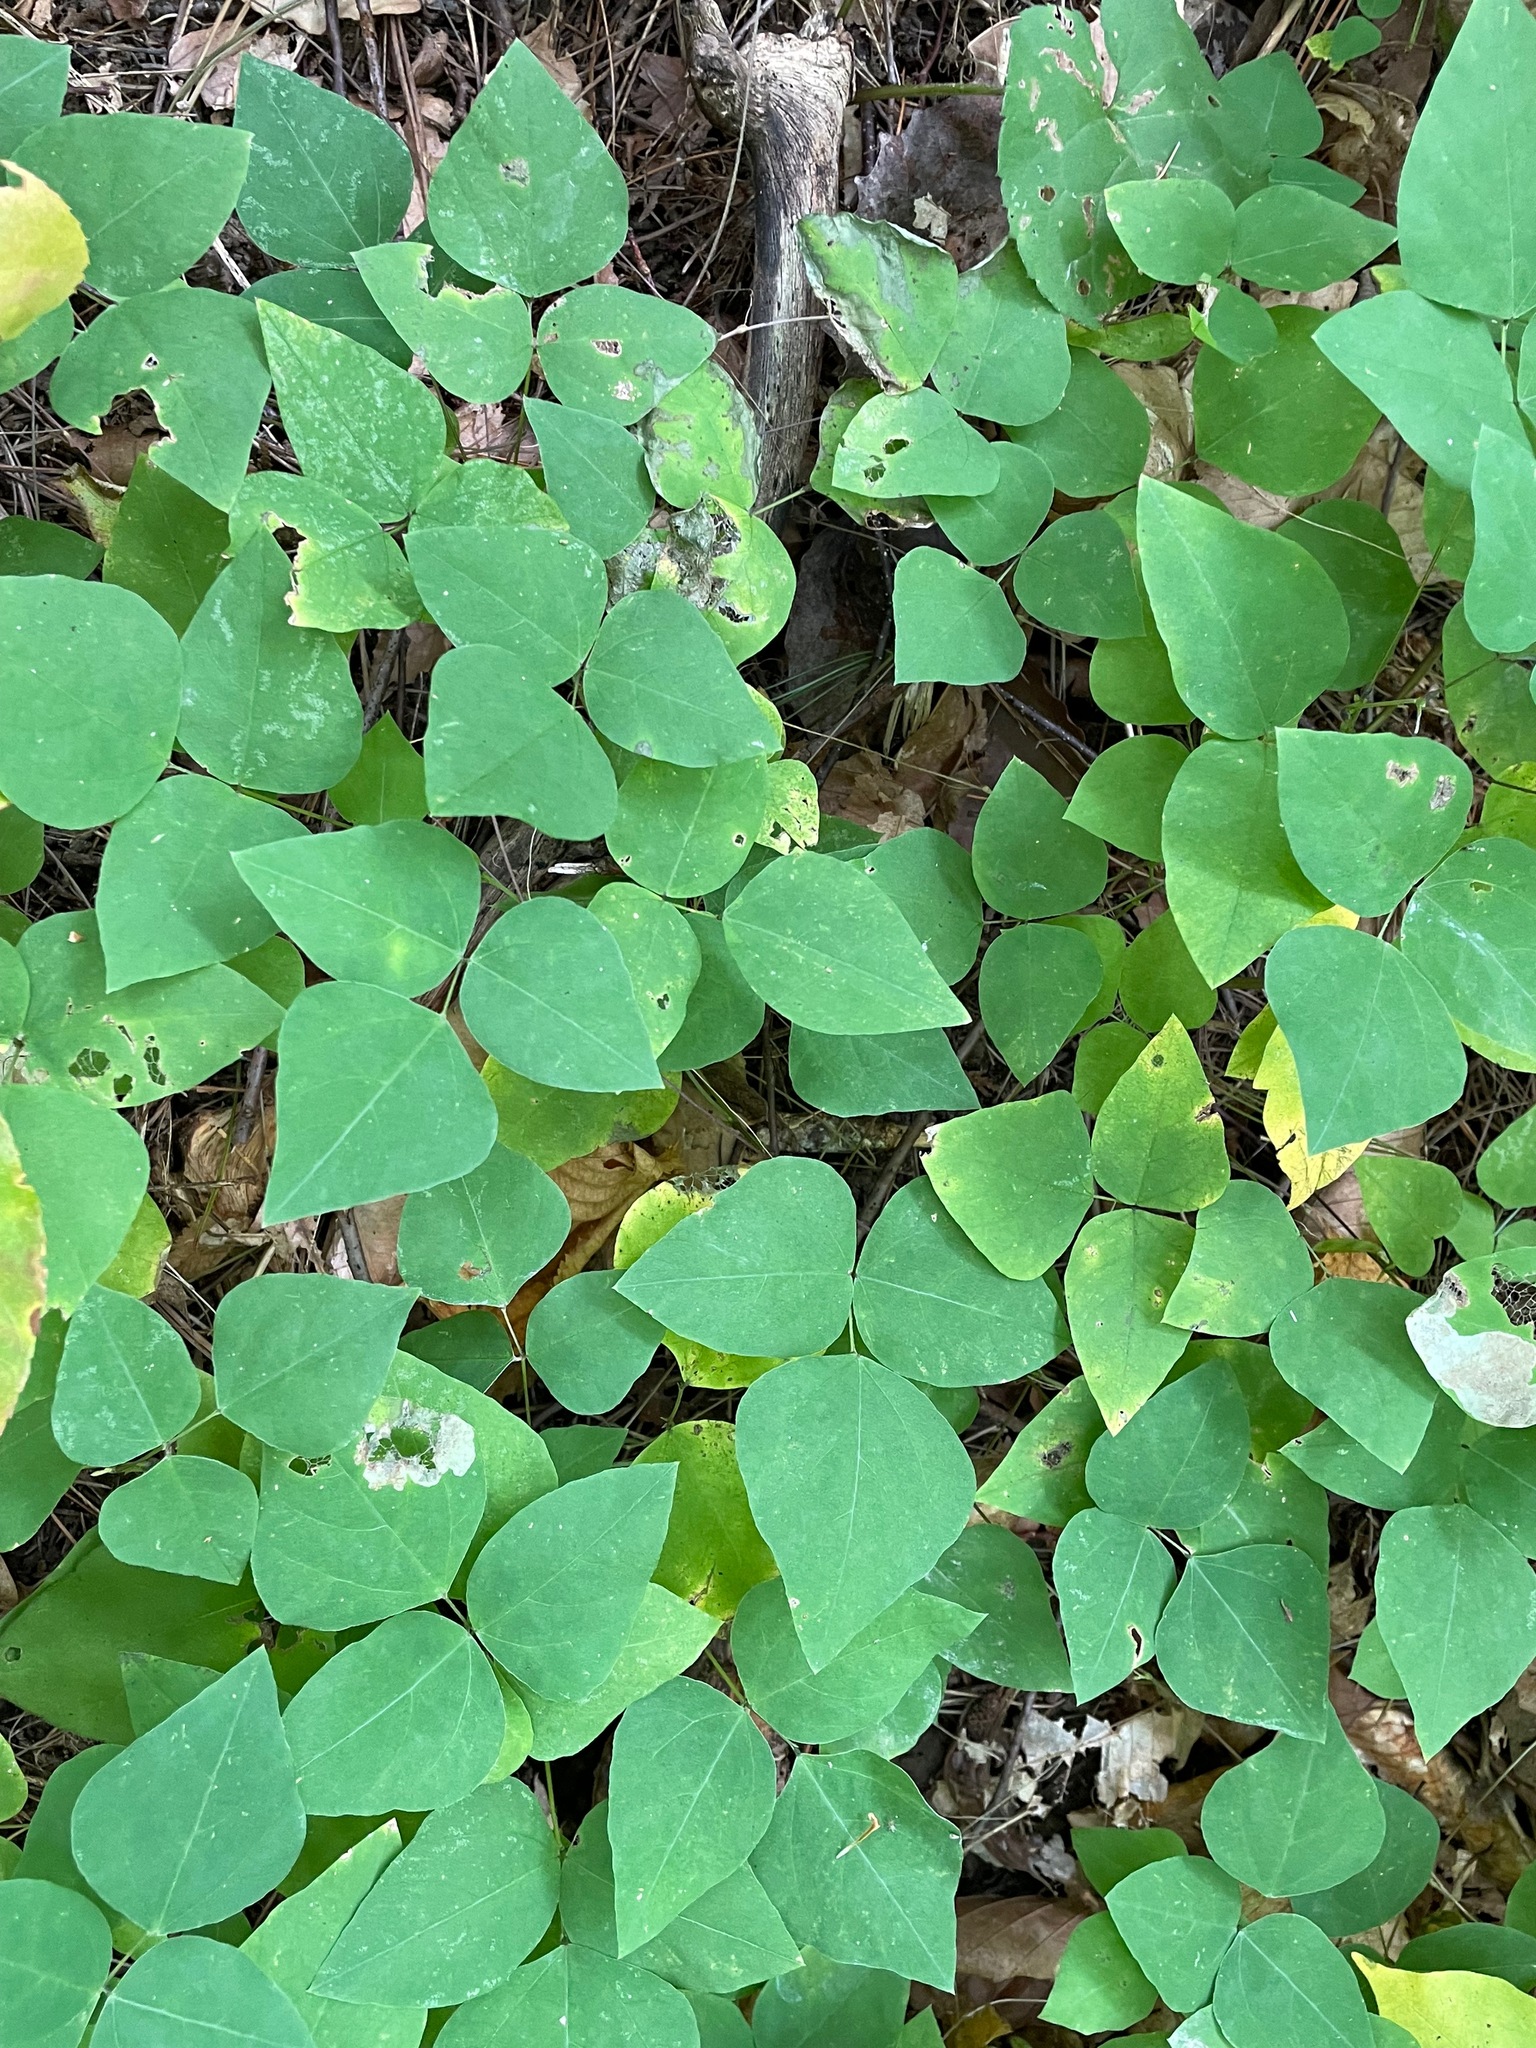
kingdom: Plantae
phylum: Tracheophyta
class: Magnoliopsida
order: Fabales
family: Fabaceae
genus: Amphicarpaea
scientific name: Amphicarpaea bracteata
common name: American hog peanut
